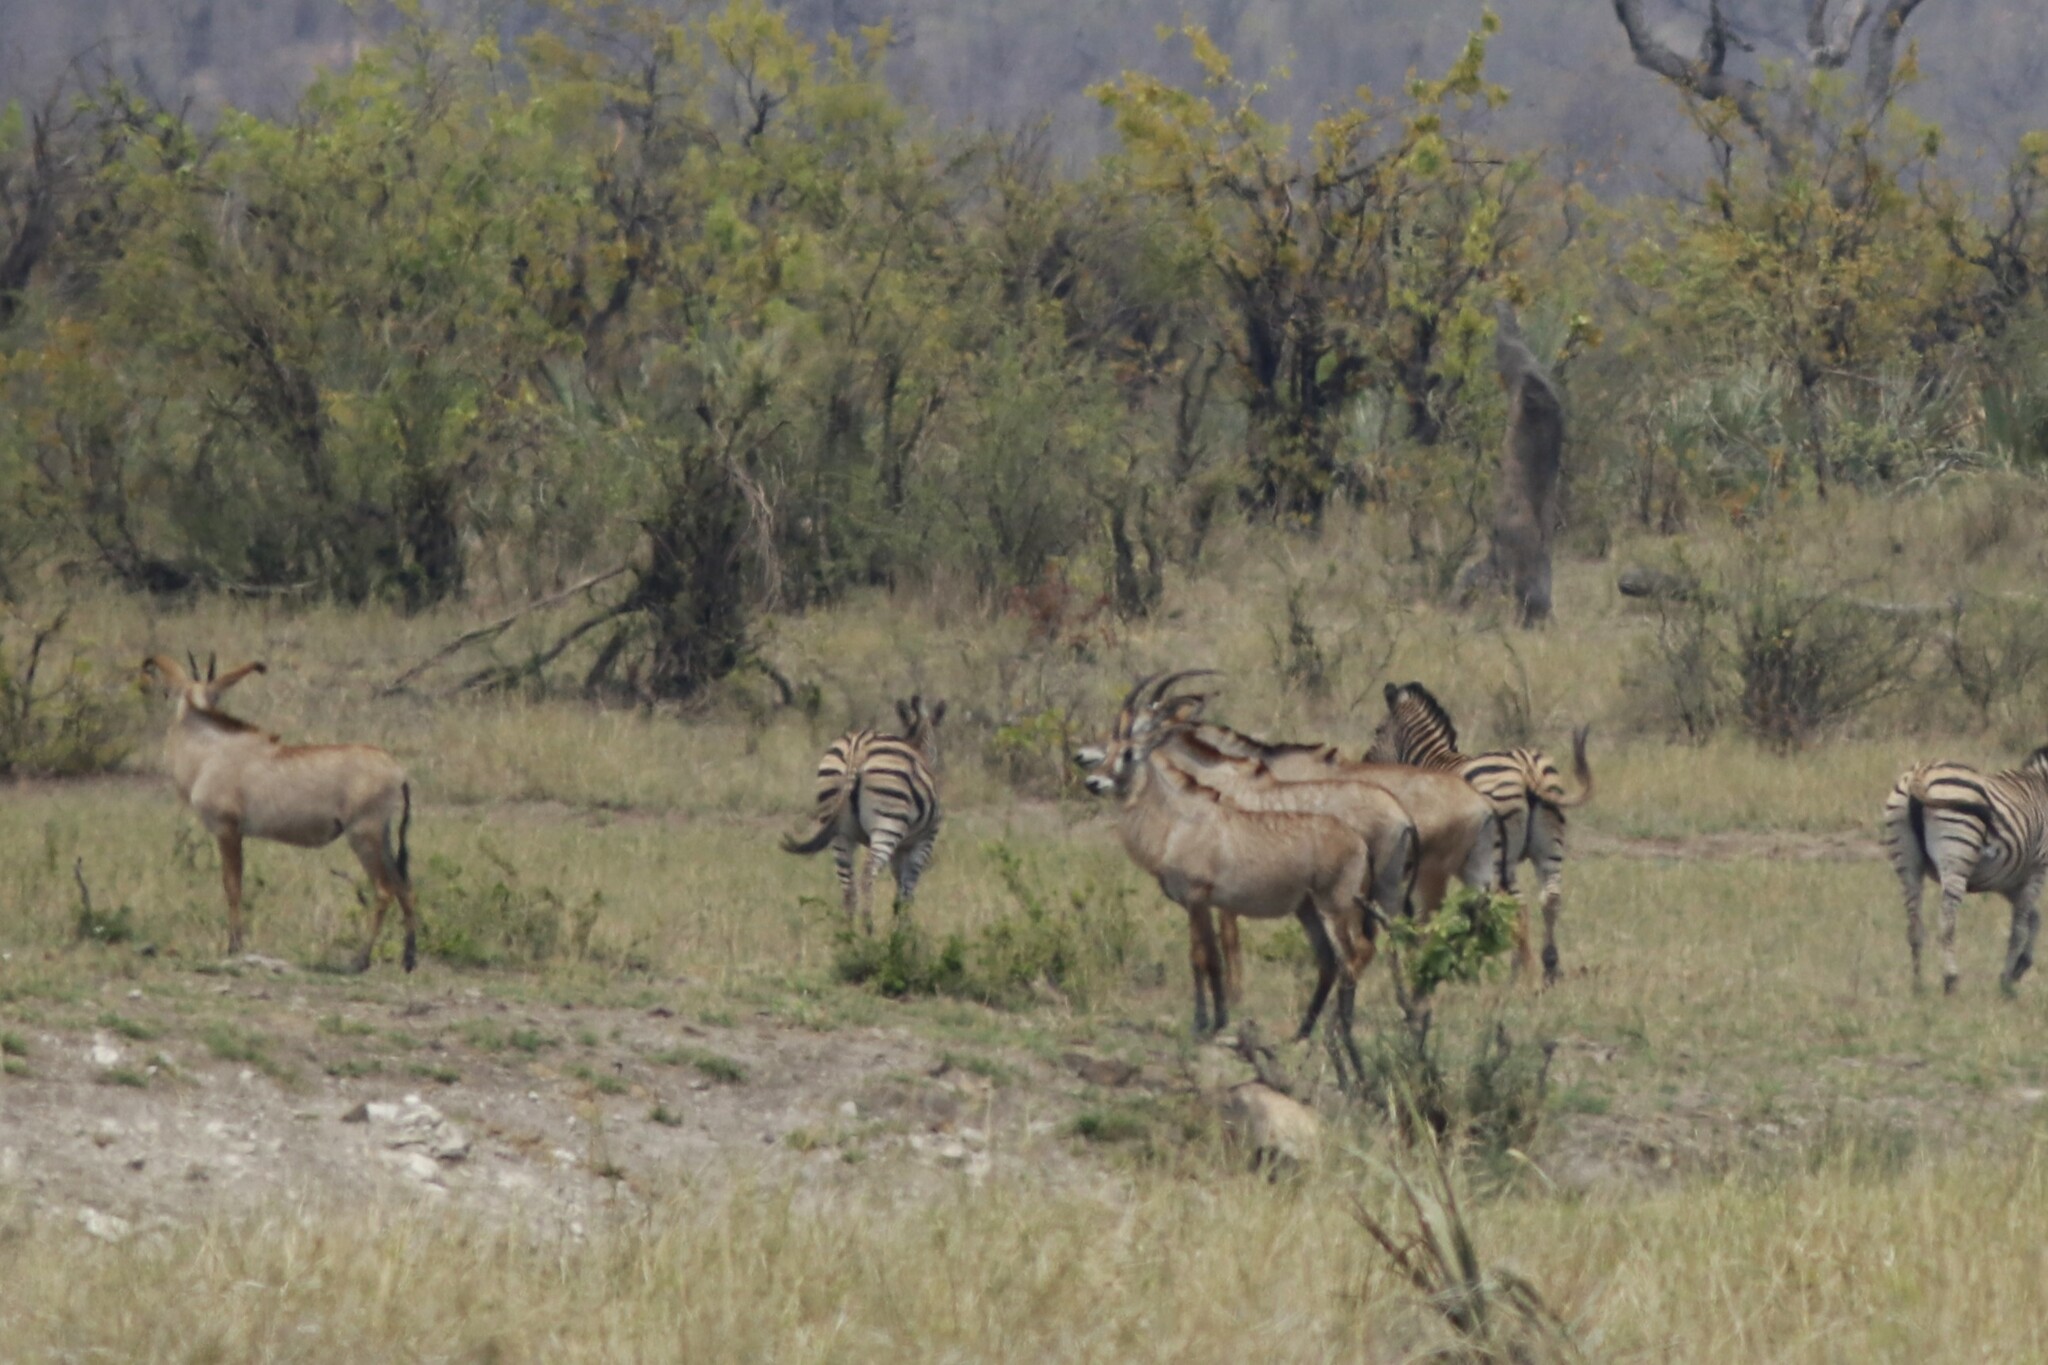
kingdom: Animalia
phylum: Chordata
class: Mammalia
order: Artiodactyla
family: Bovidae
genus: Hippotragus
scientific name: Hippotragus equinus
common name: Roan antelope
